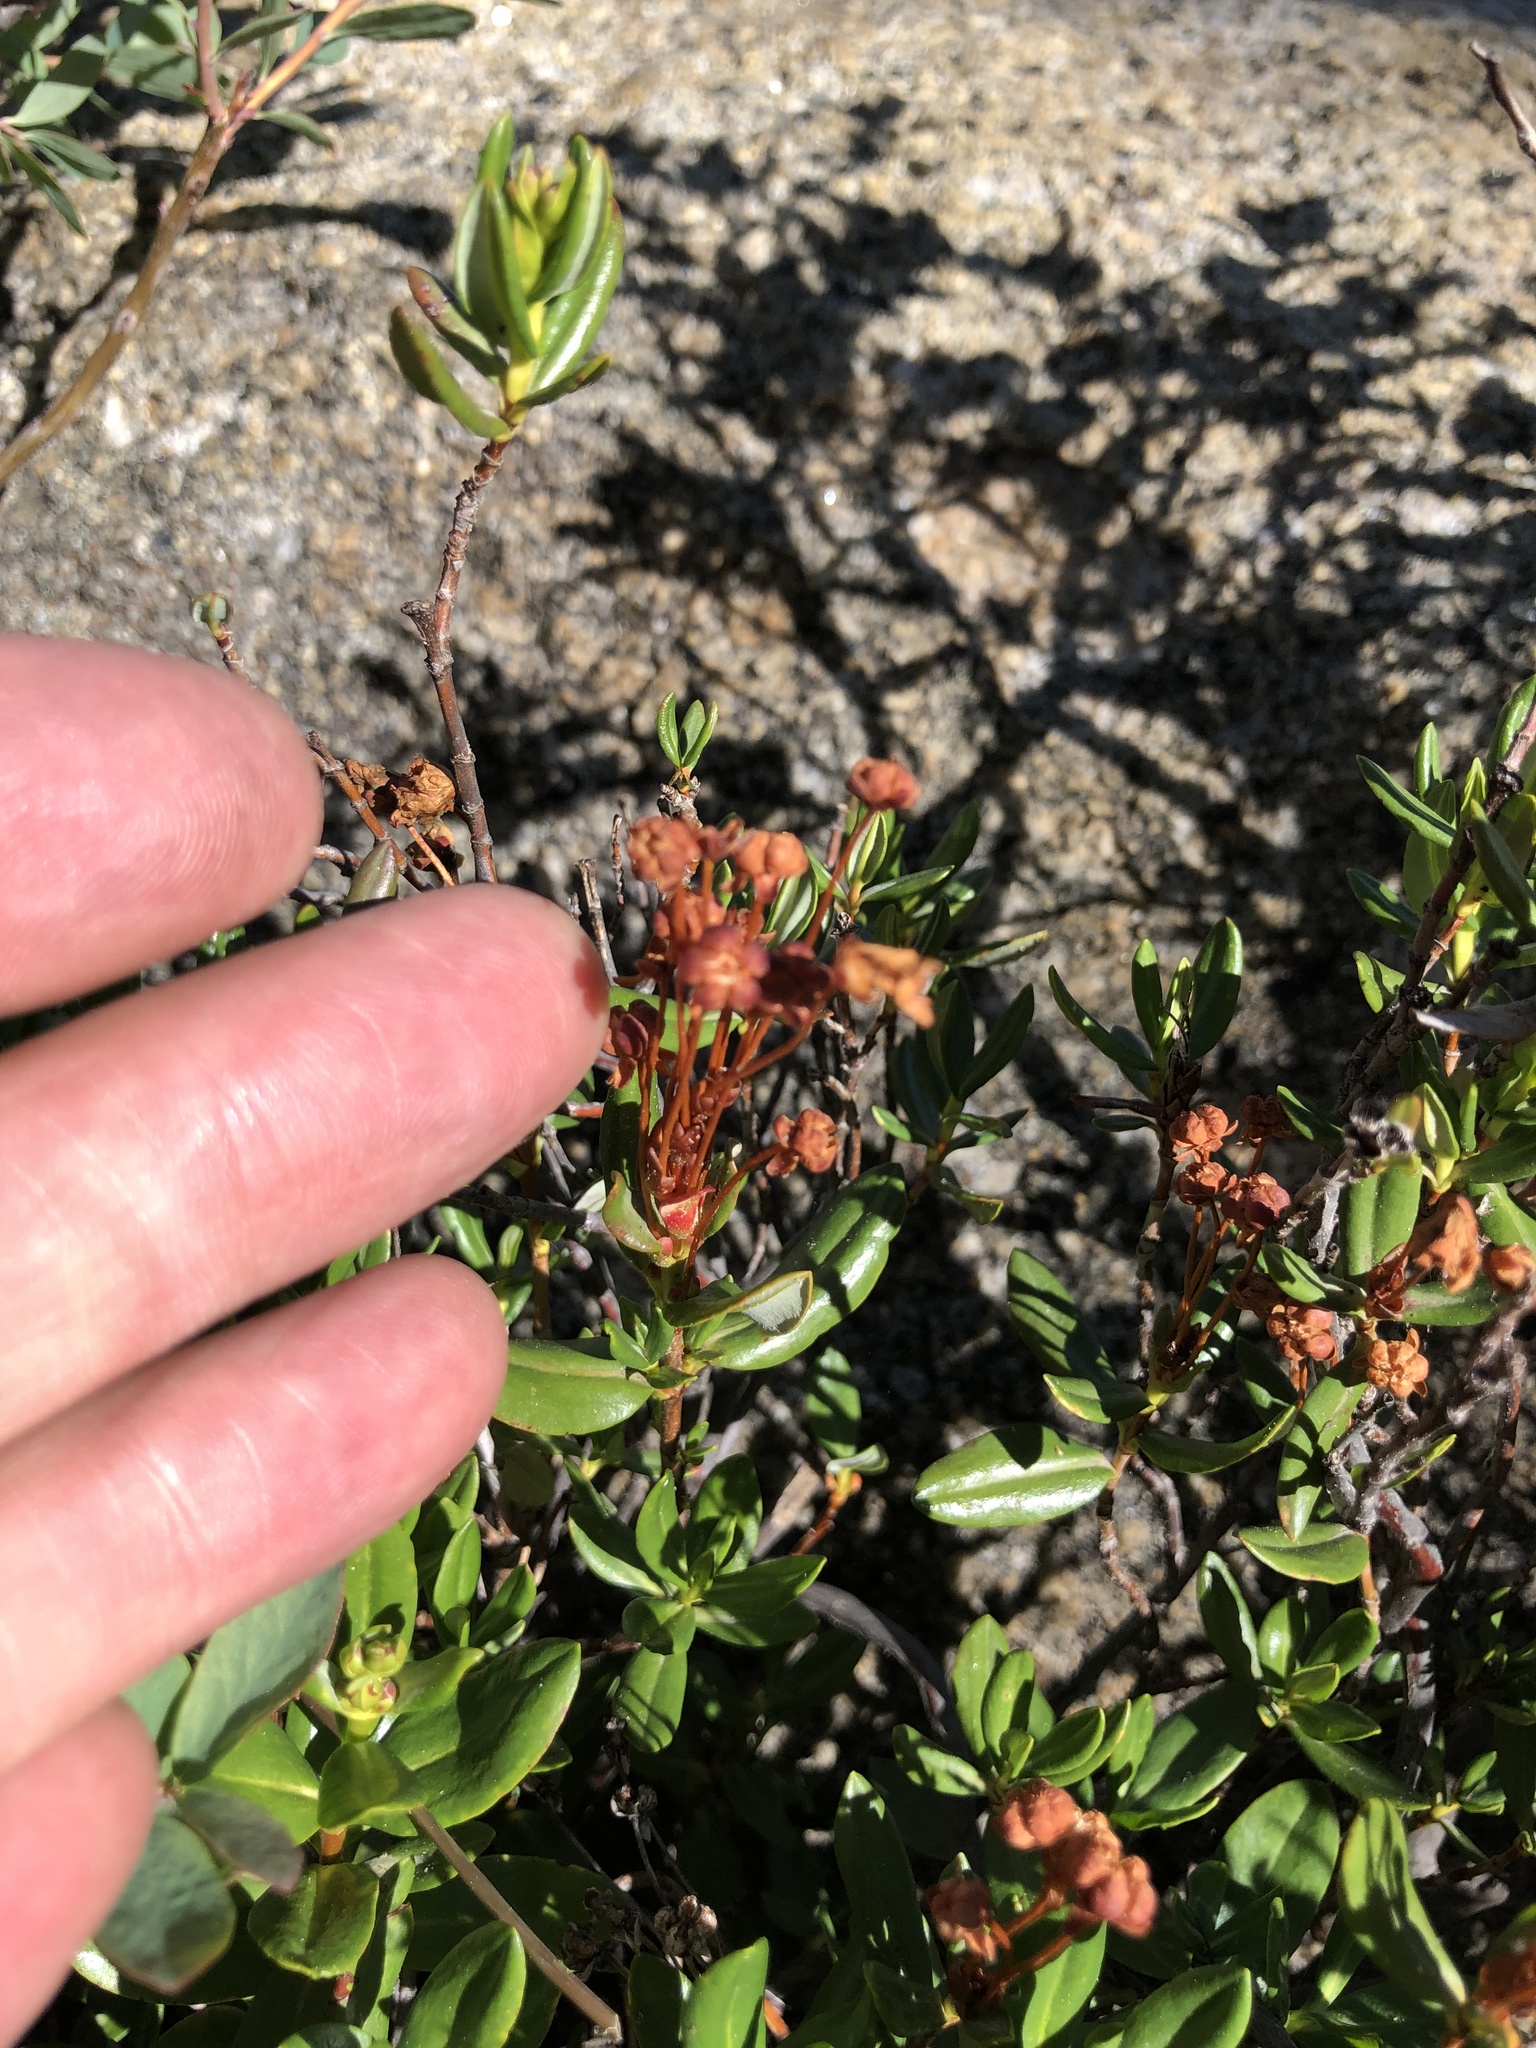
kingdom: Plantae
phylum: Tracheophyta
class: Magnoliopsida
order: Ericales
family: Ericaceae
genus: Kalmia
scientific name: Kalmia microphylla
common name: Alpine bog laurel
